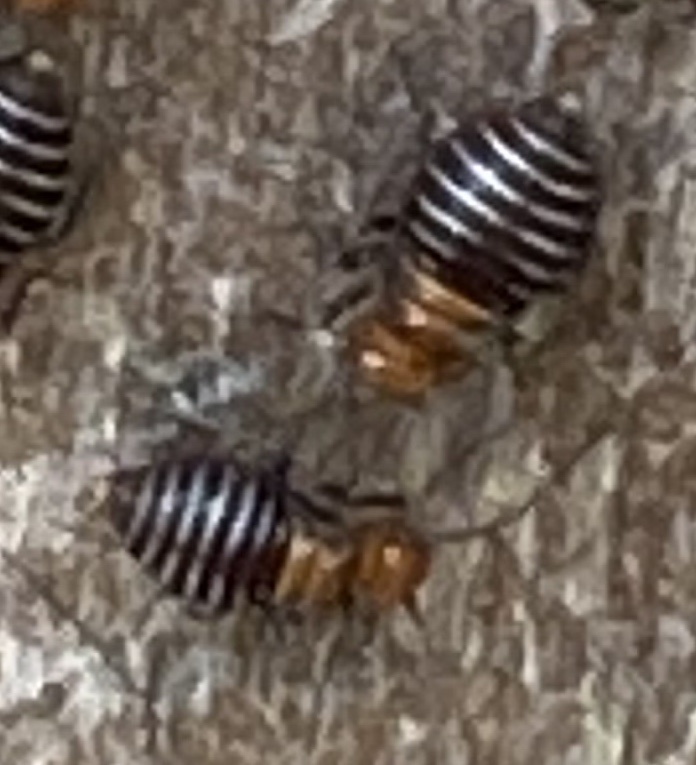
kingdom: Animalia
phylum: Arthropoda
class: Insecta
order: Psocodea
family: Psocidae
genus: Cerastipsocus
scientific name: Cerastipsocus venosus
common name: Tree cattle
